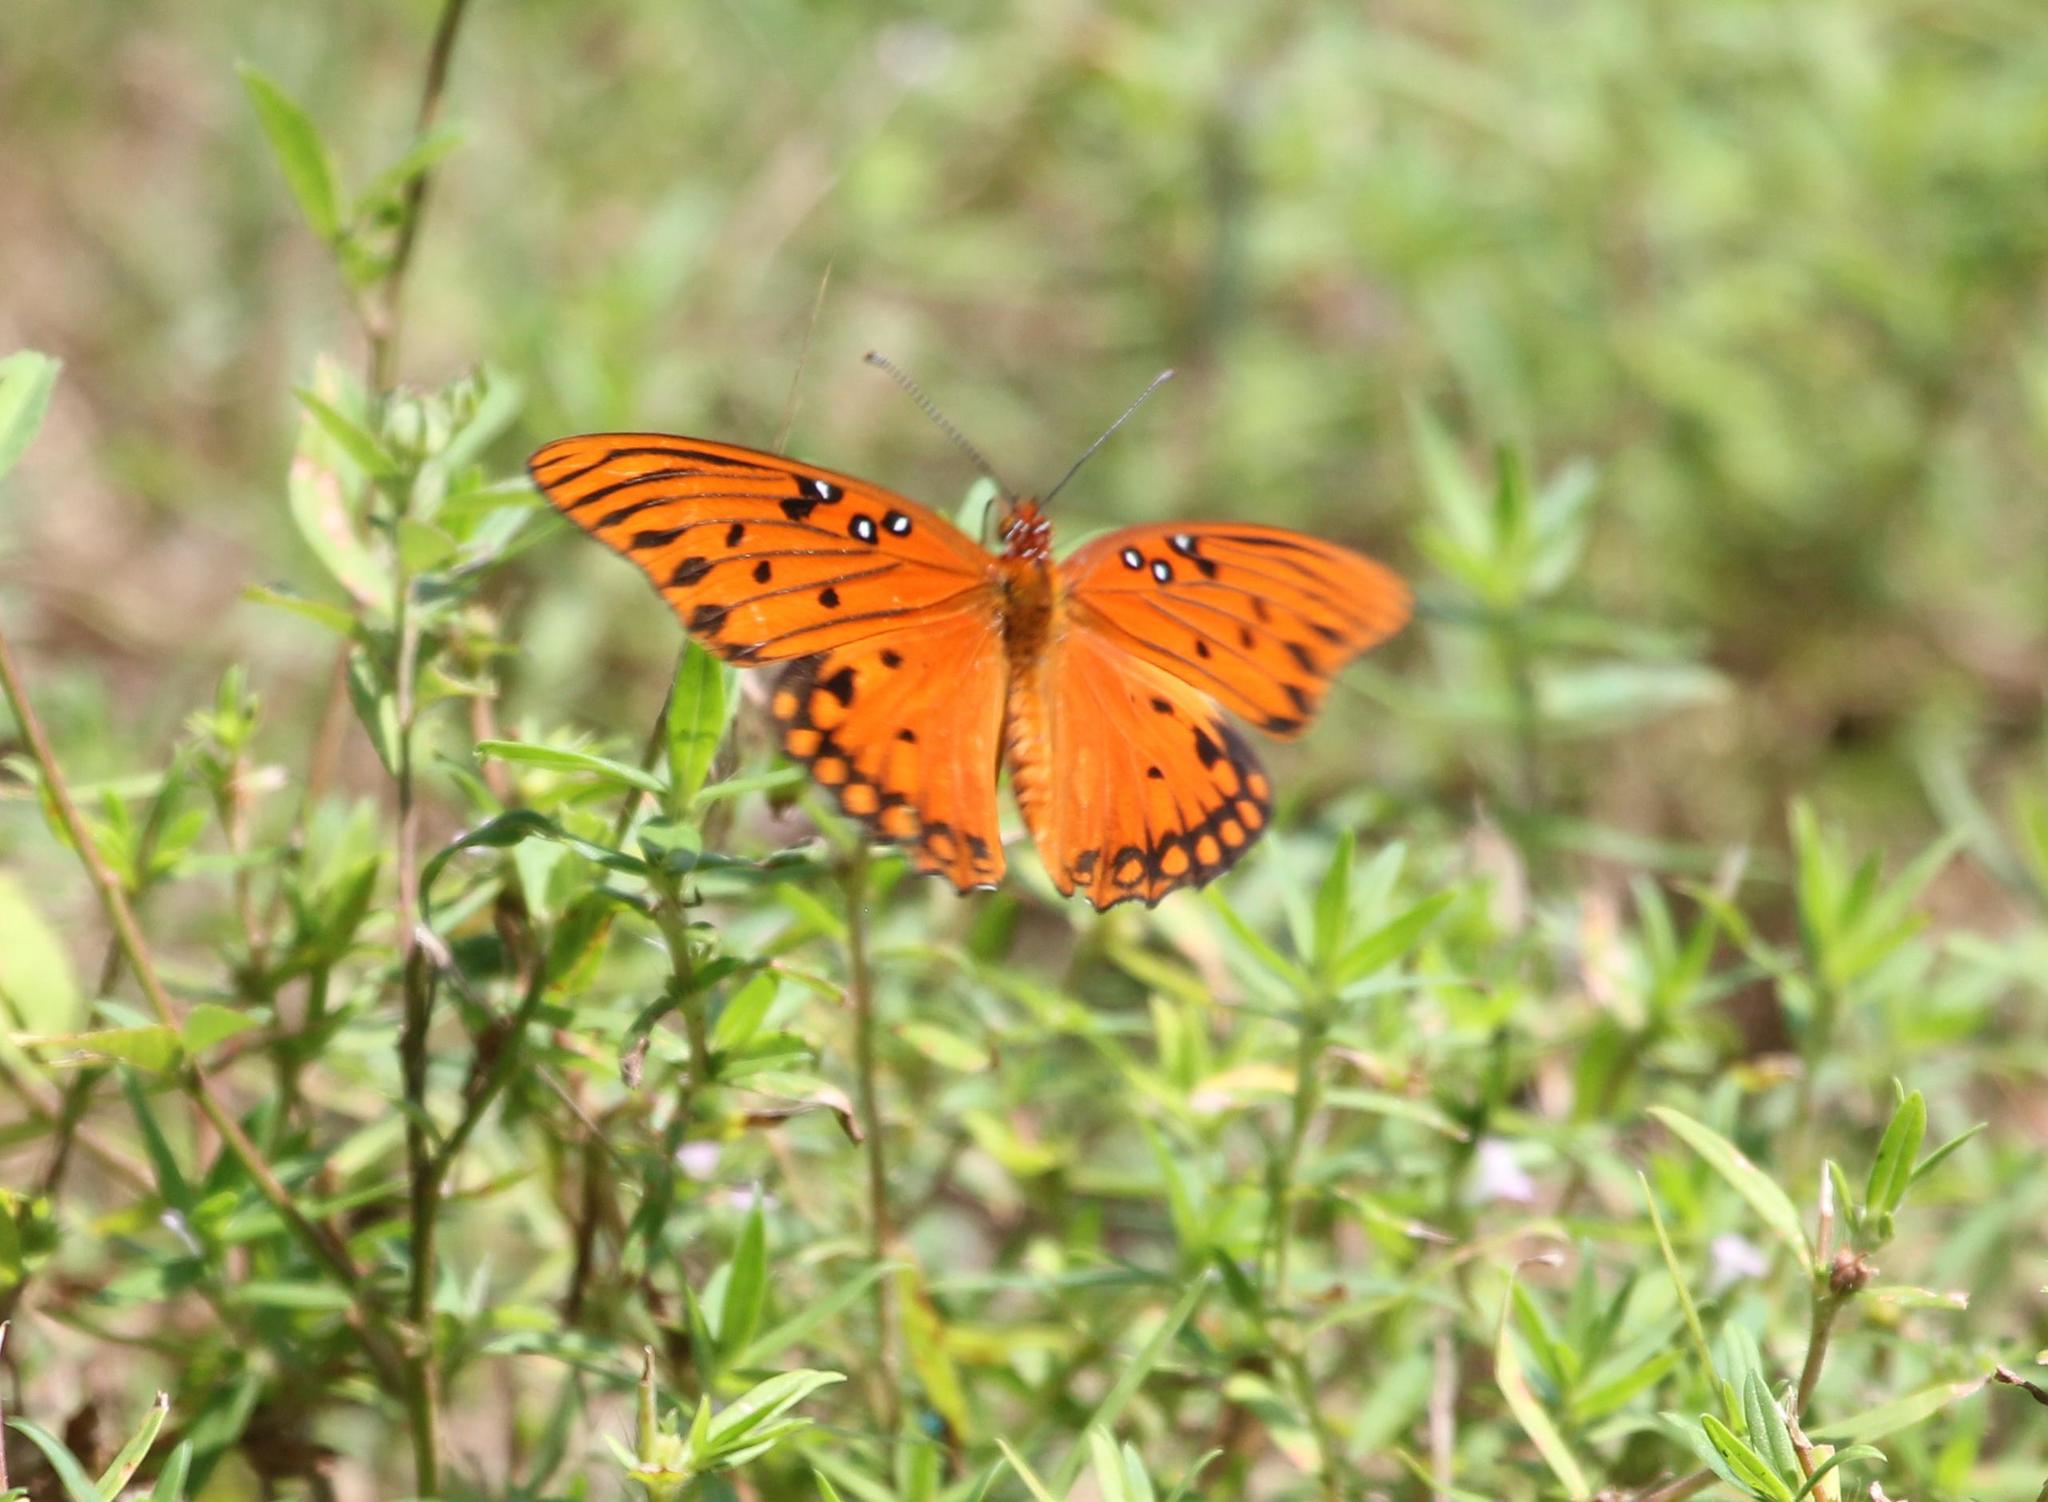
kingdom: Animalia
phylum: Arthropoda
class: Insecta
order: Lepidoptera
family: Nymphalidae
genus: Dione
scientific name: Dione vanillae
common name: Gulf fritillary
